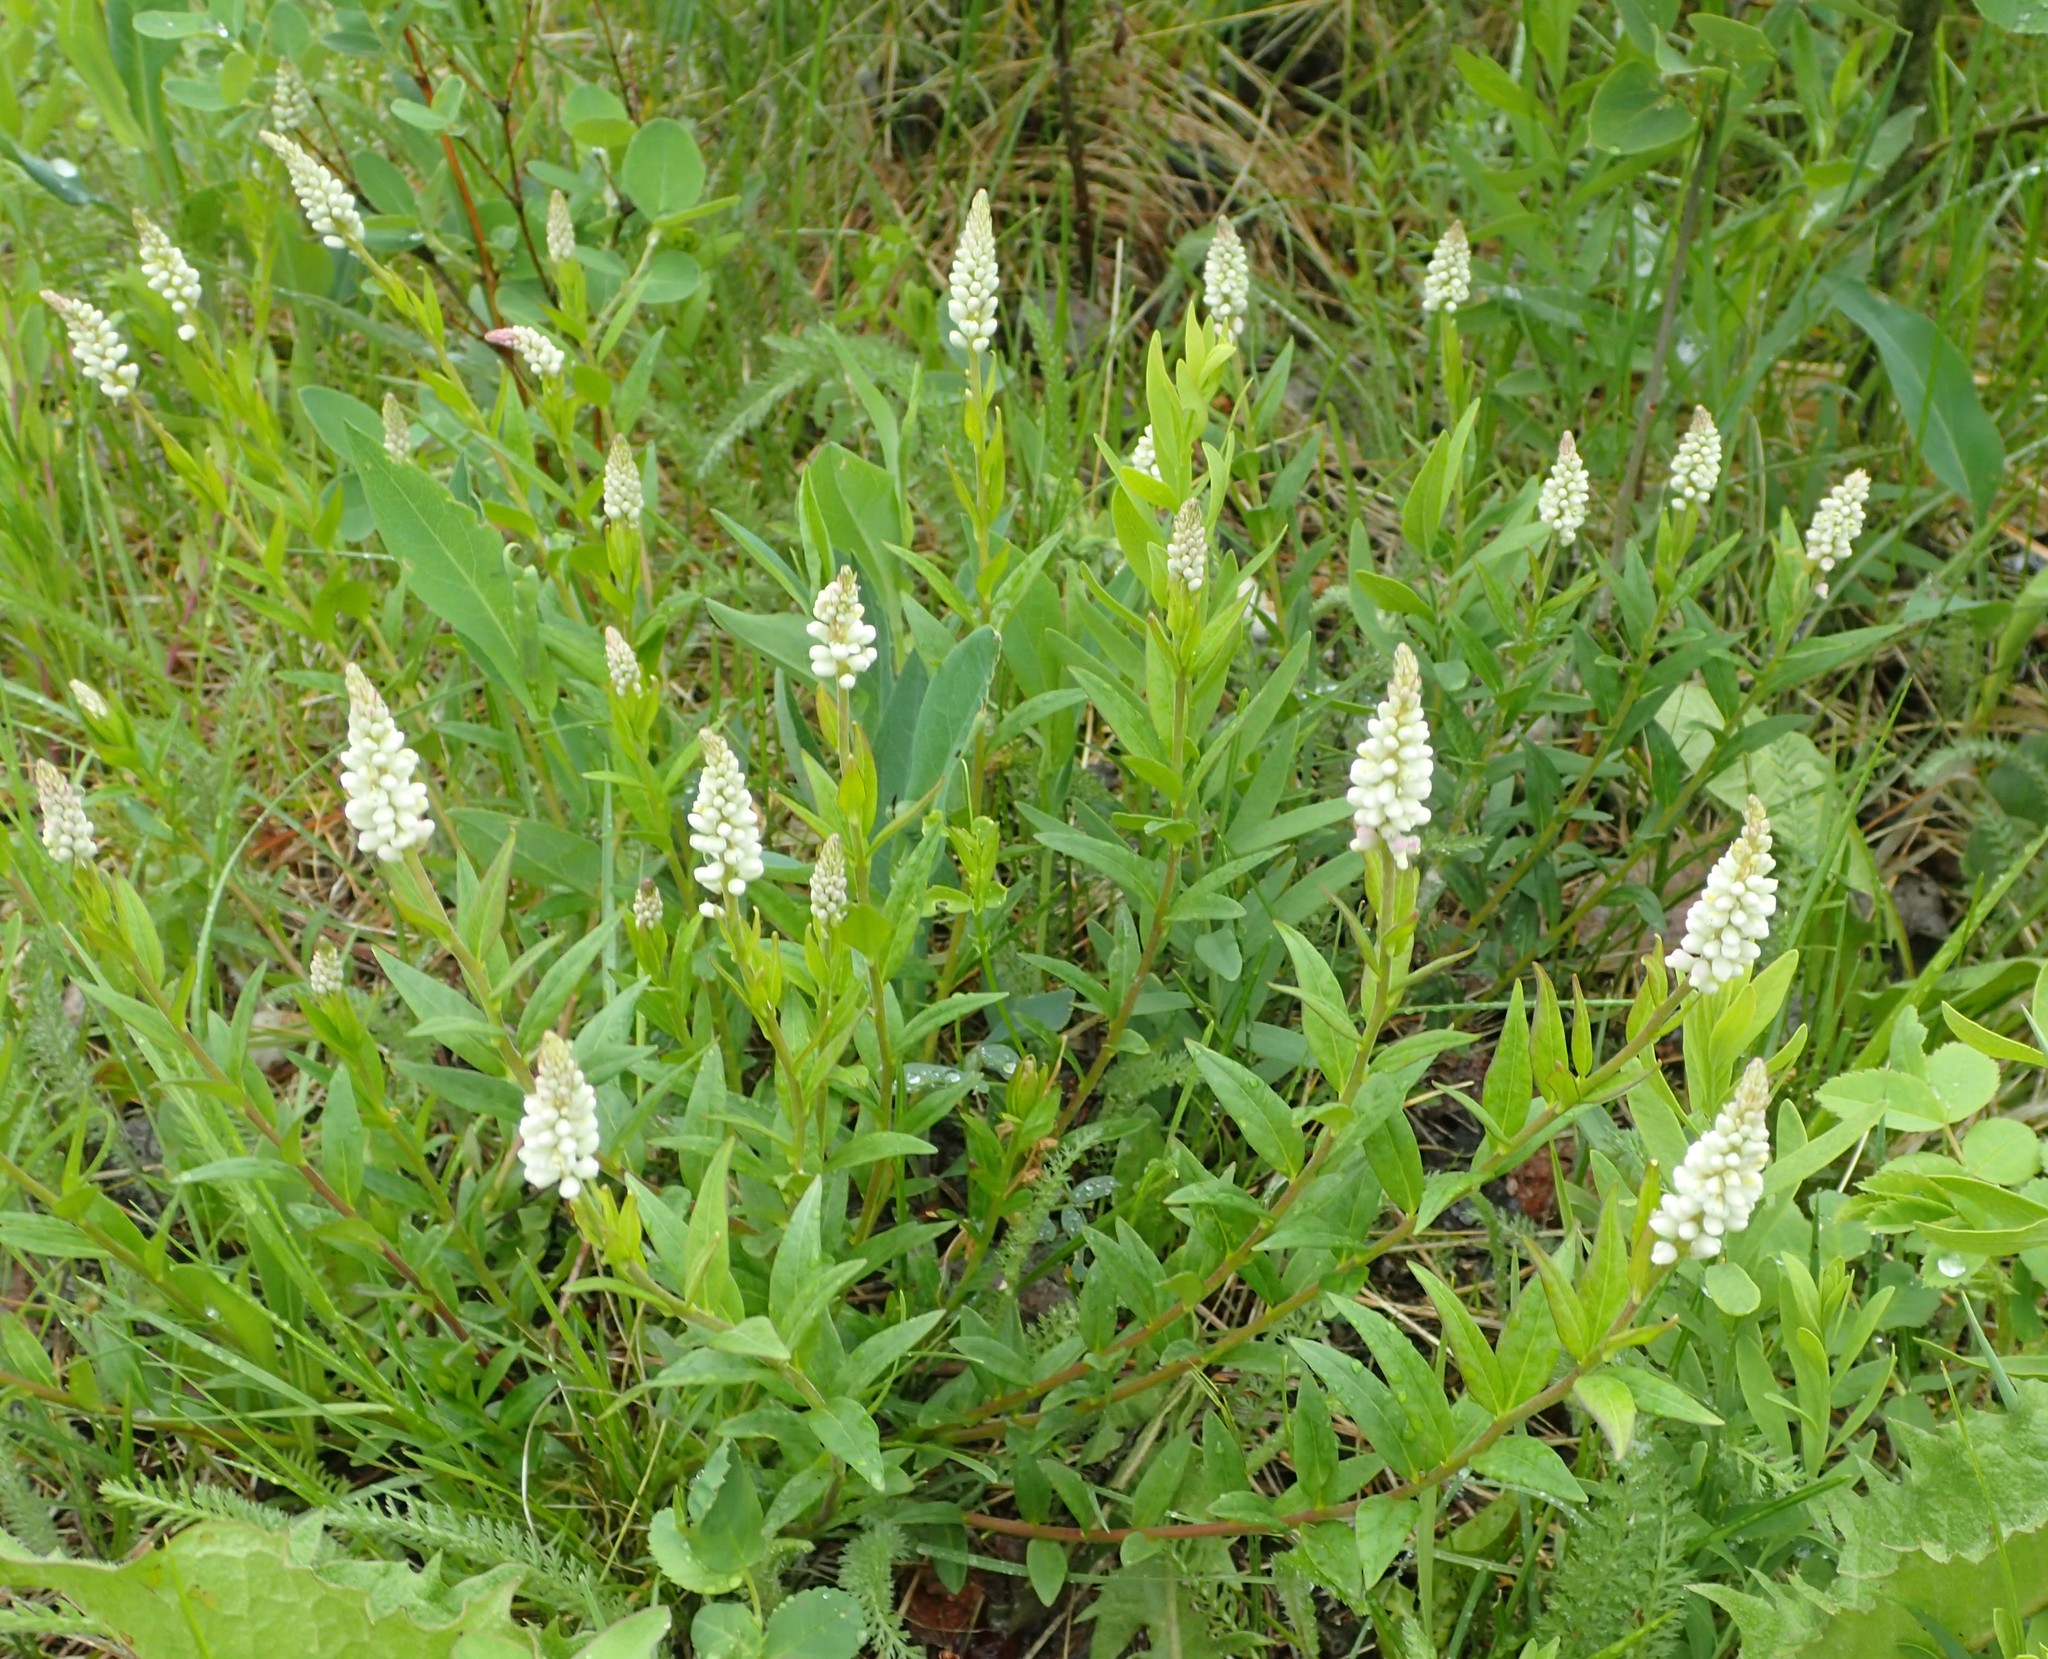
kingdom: Plantae
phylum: Tracheophyta
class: Magnoliopsida
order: Fabales
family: Polygalaceae
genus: Polygala
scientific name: Polygala senega
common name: Seneca snakeroot
